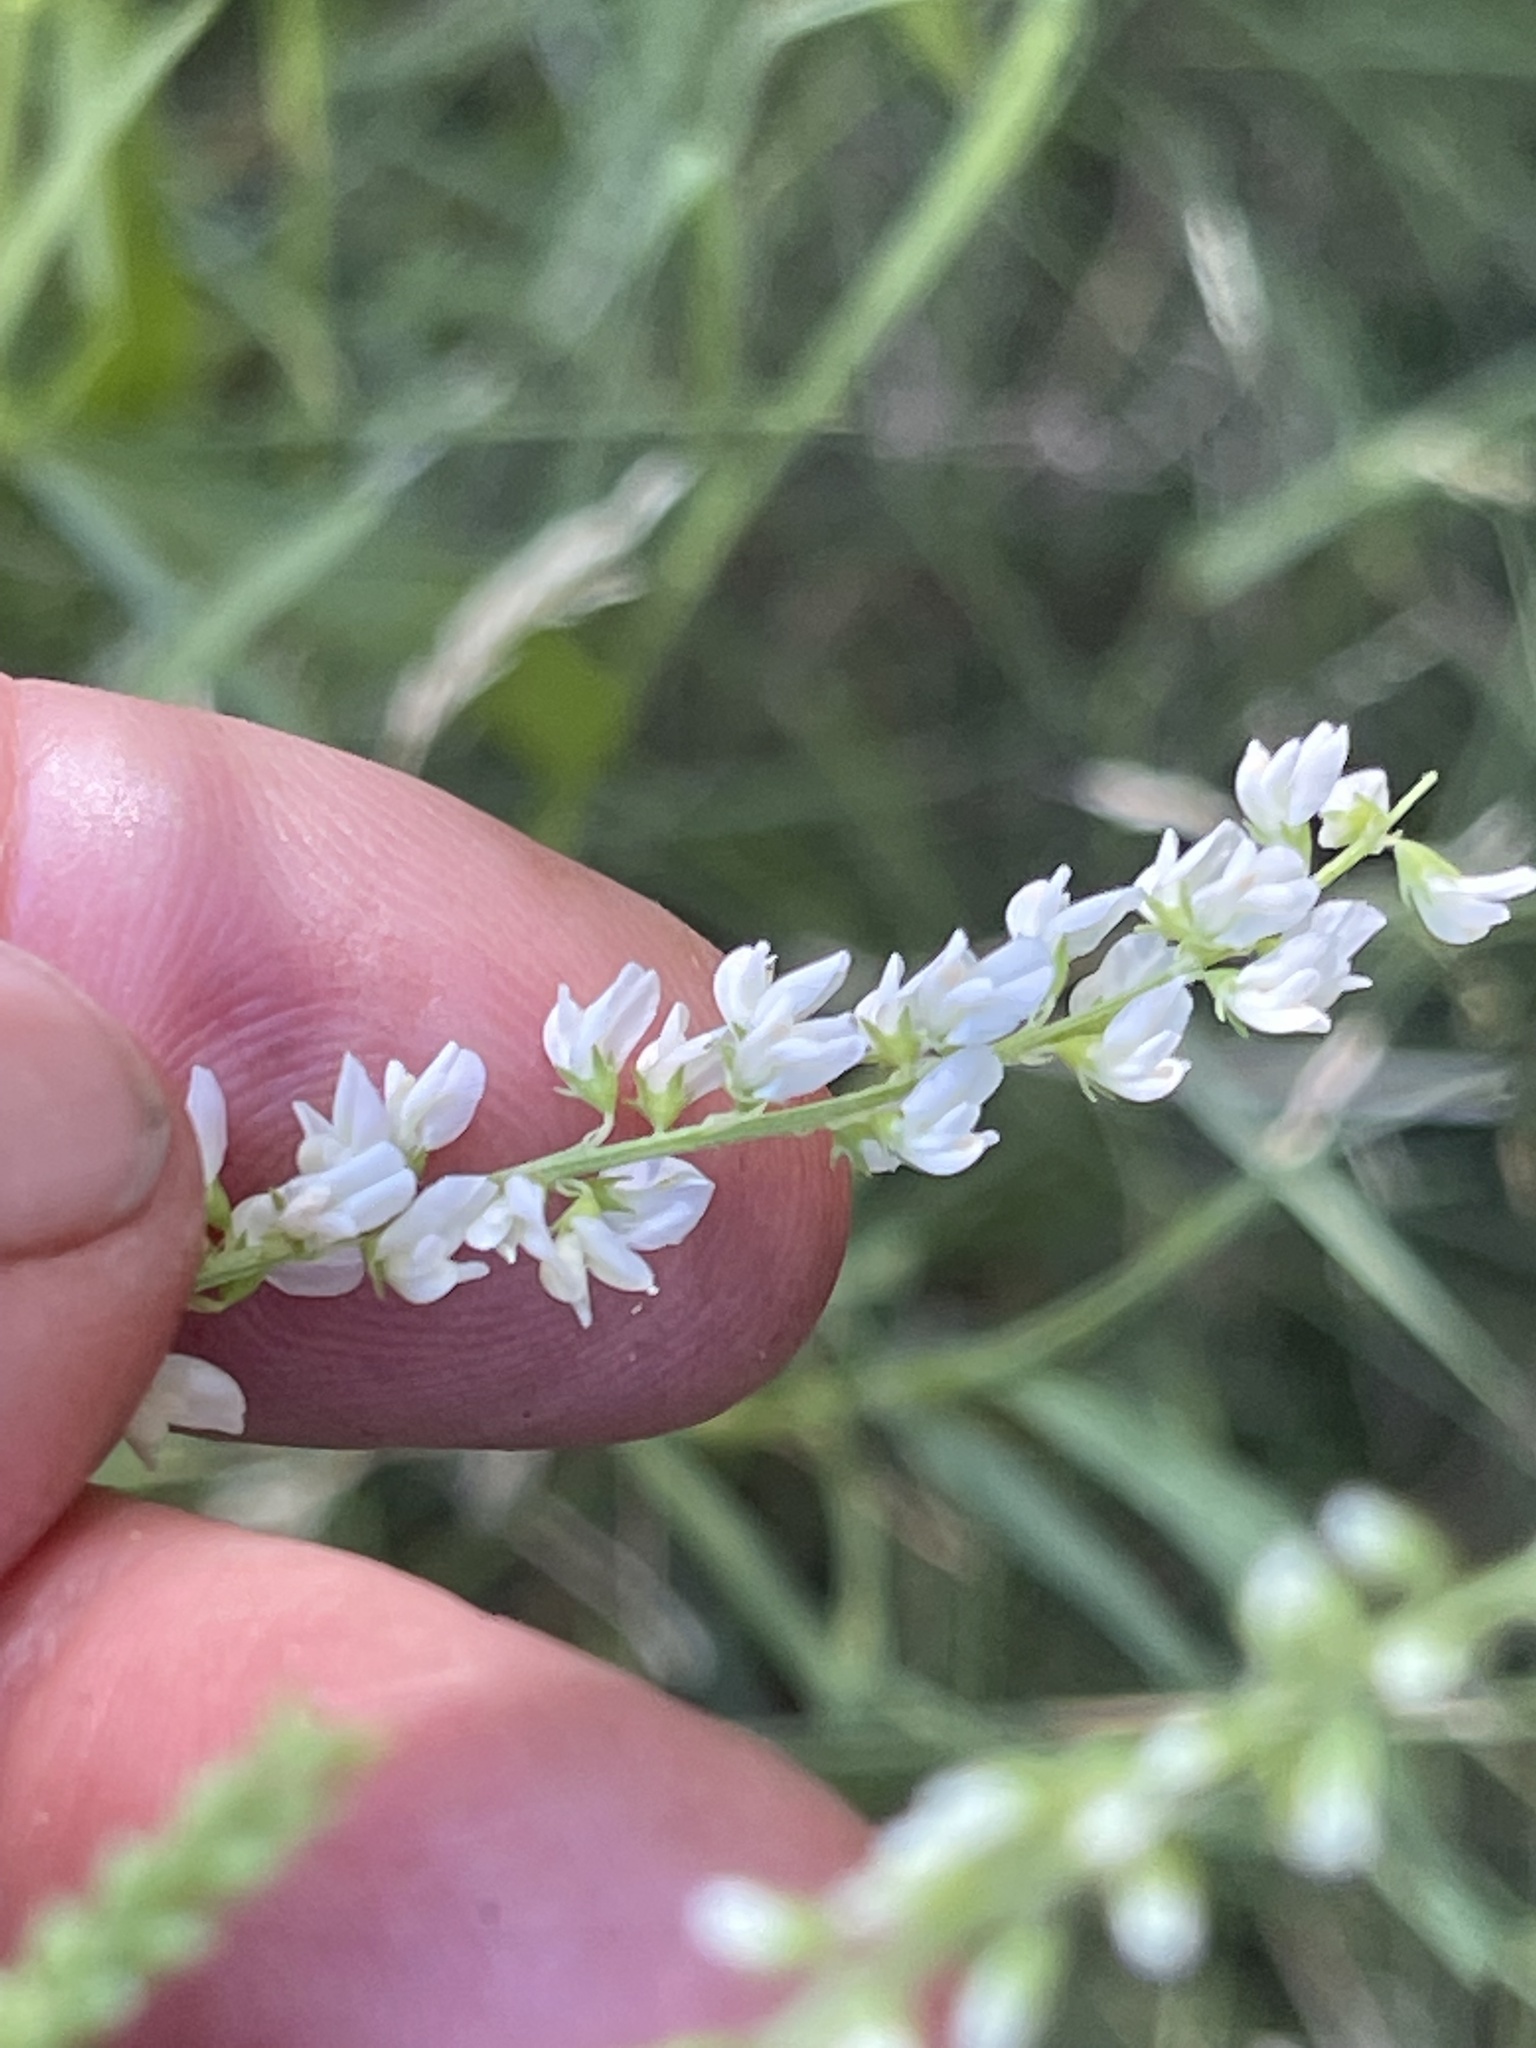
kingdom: Plantae
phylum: Tracheophyta
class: Magnoliopsida
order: Fabales
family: Fabaceae
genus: Melilotus
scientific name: Melilotus albus
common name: White melilot
